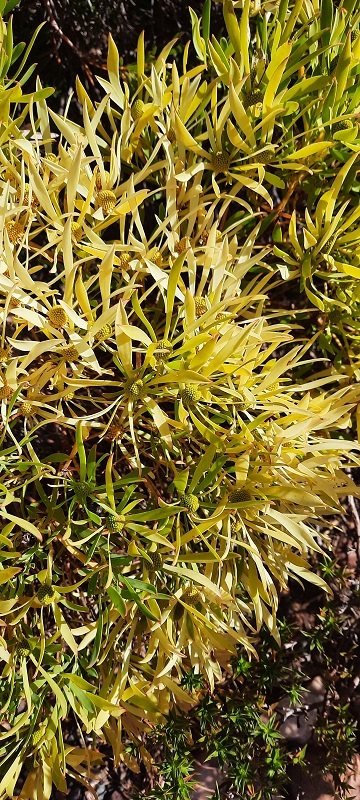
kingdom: Plantae
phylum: Tracheophyta
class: Magnoliopsida
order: Proteales
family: Proteaceae
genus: Leucadendron
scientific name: Leucadendron salignum
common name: Common sunshine conebush
